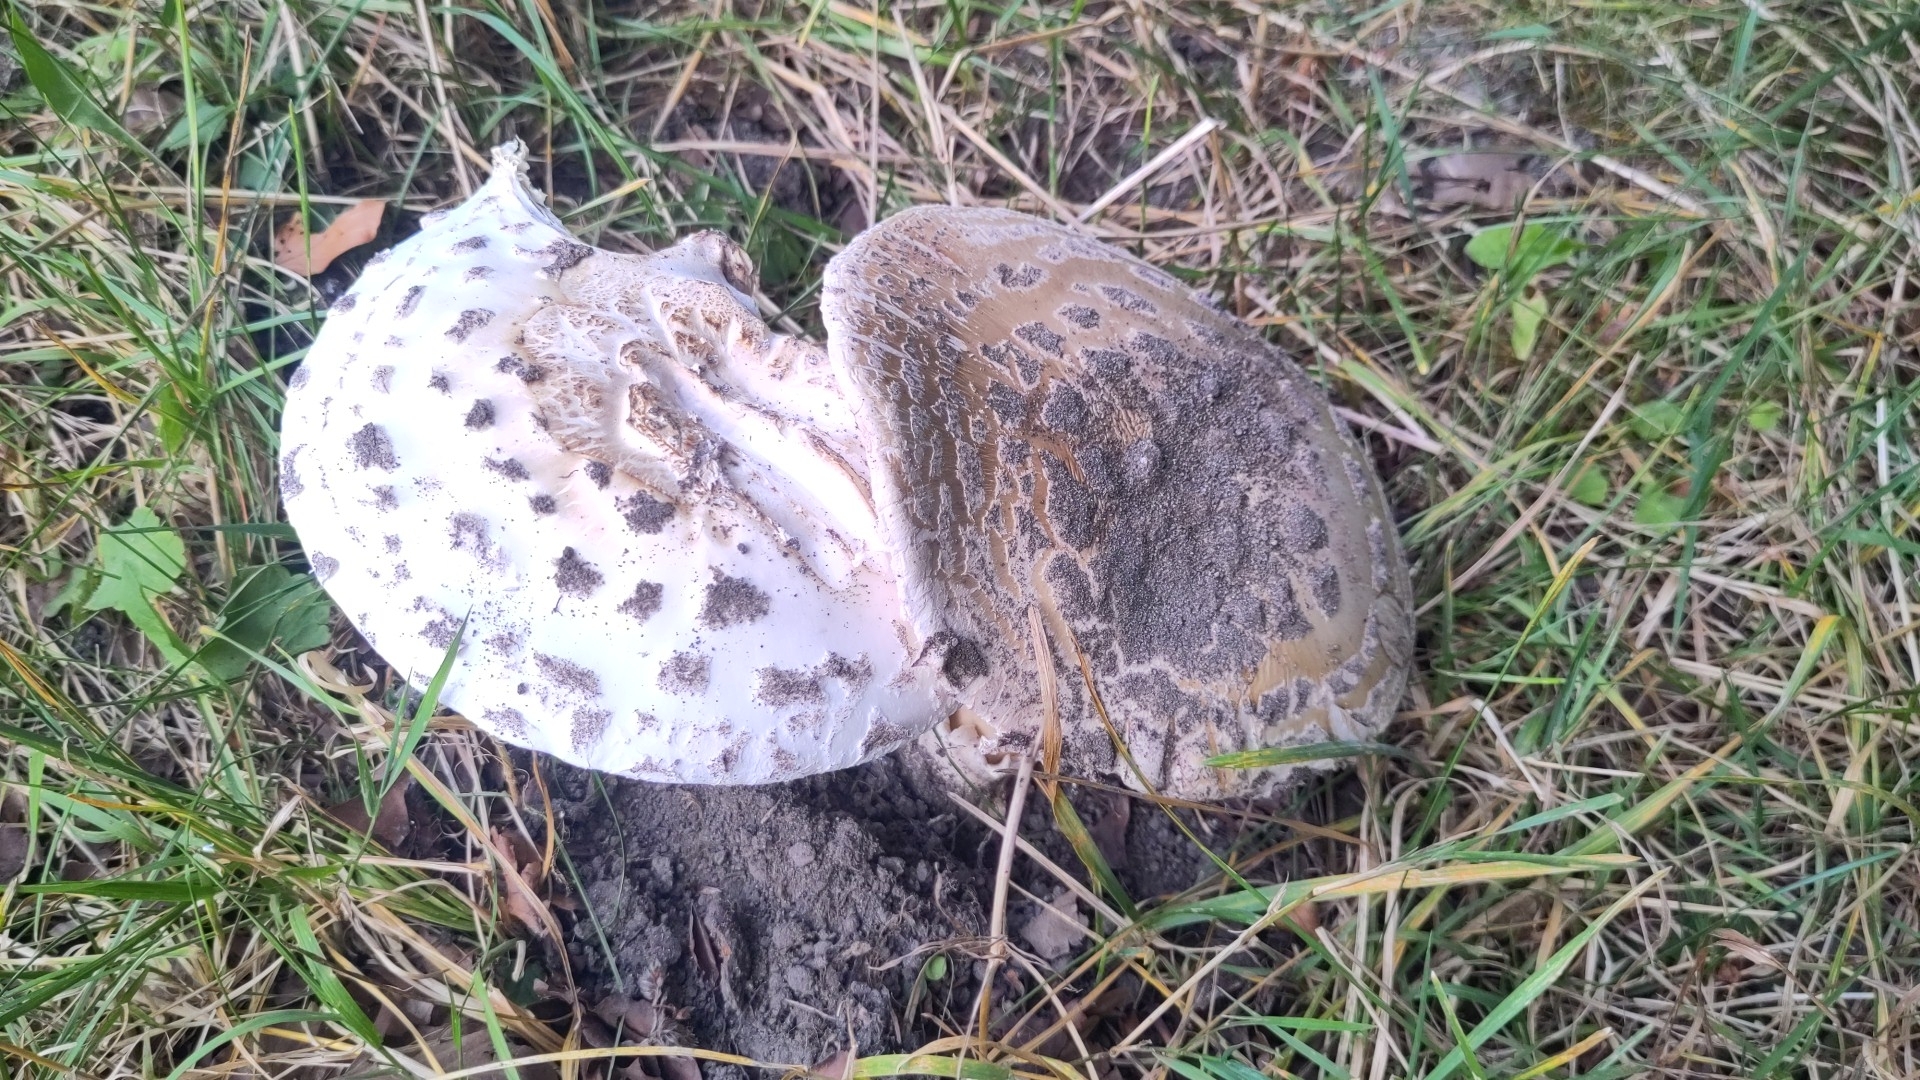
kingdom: Fungi
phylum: Basidiomycota
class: Agaricomycetes
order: Agaricales
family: Amanitaceae
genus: Amanita
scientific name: Amanita strobiliformis
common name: Warted amanita
